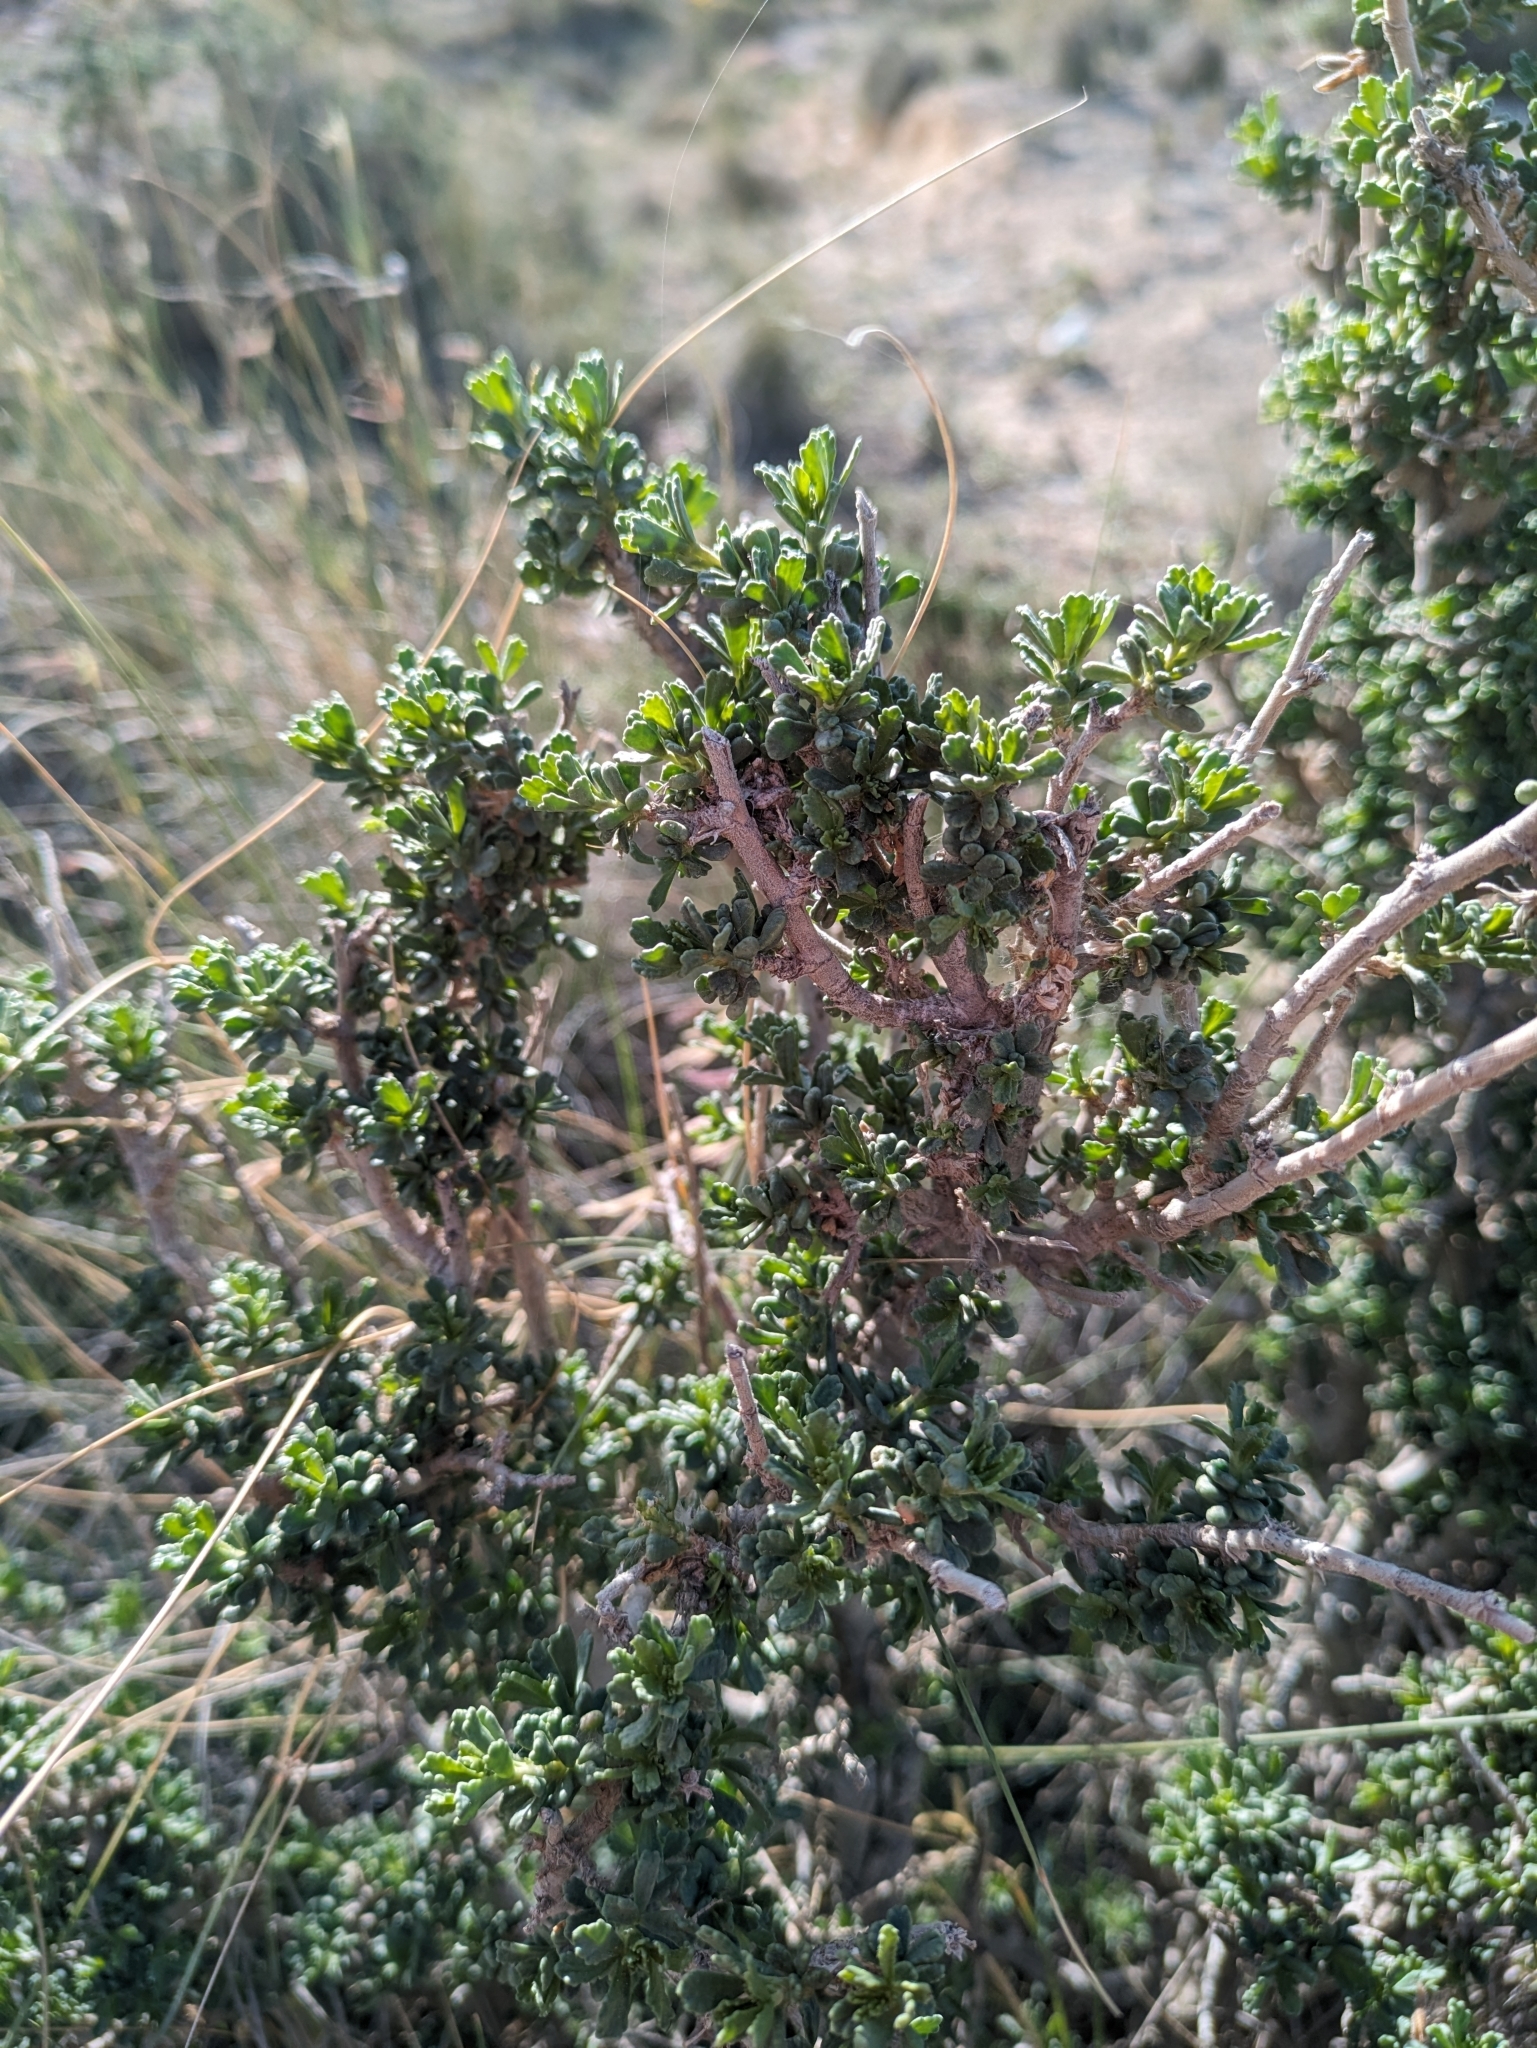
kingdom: Plantae
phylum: Tracheophyta
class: Magnoliopsida
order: Fabales
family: Fabaceae
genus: Ononis
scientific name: Ononis tridentata
